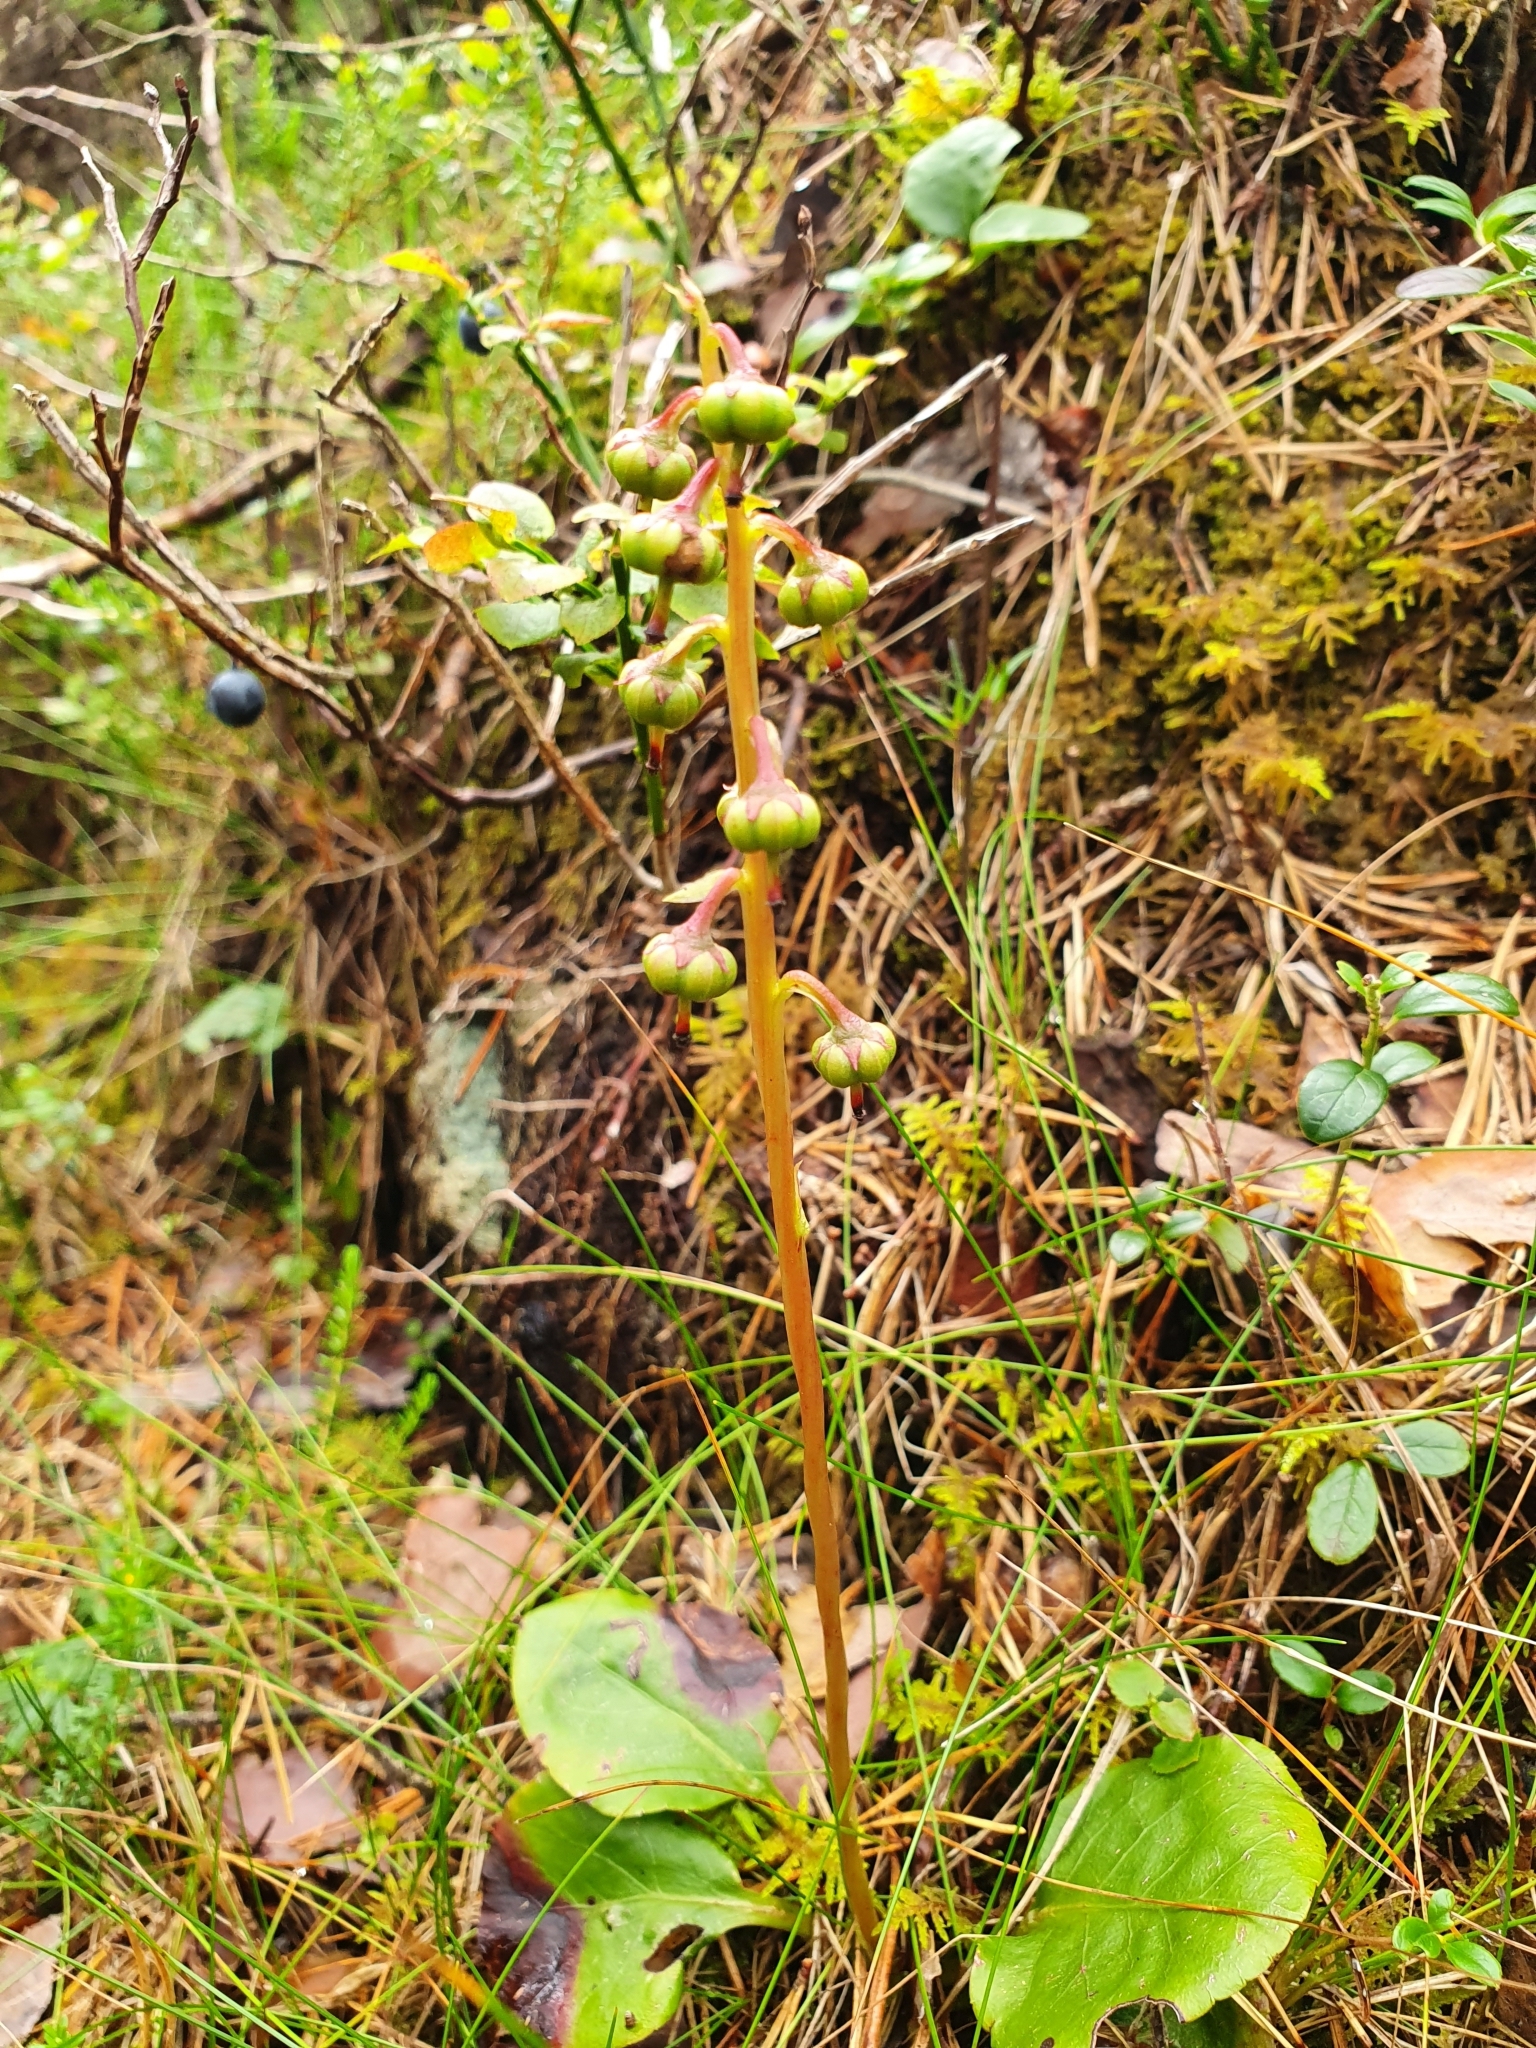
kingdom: Plantae
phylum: Tracheophyta
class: Magnoliopsida
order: Ericales
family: Ericaceae
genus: Pyrola
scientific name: Pyrola media
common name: Intermediate wintergreen
